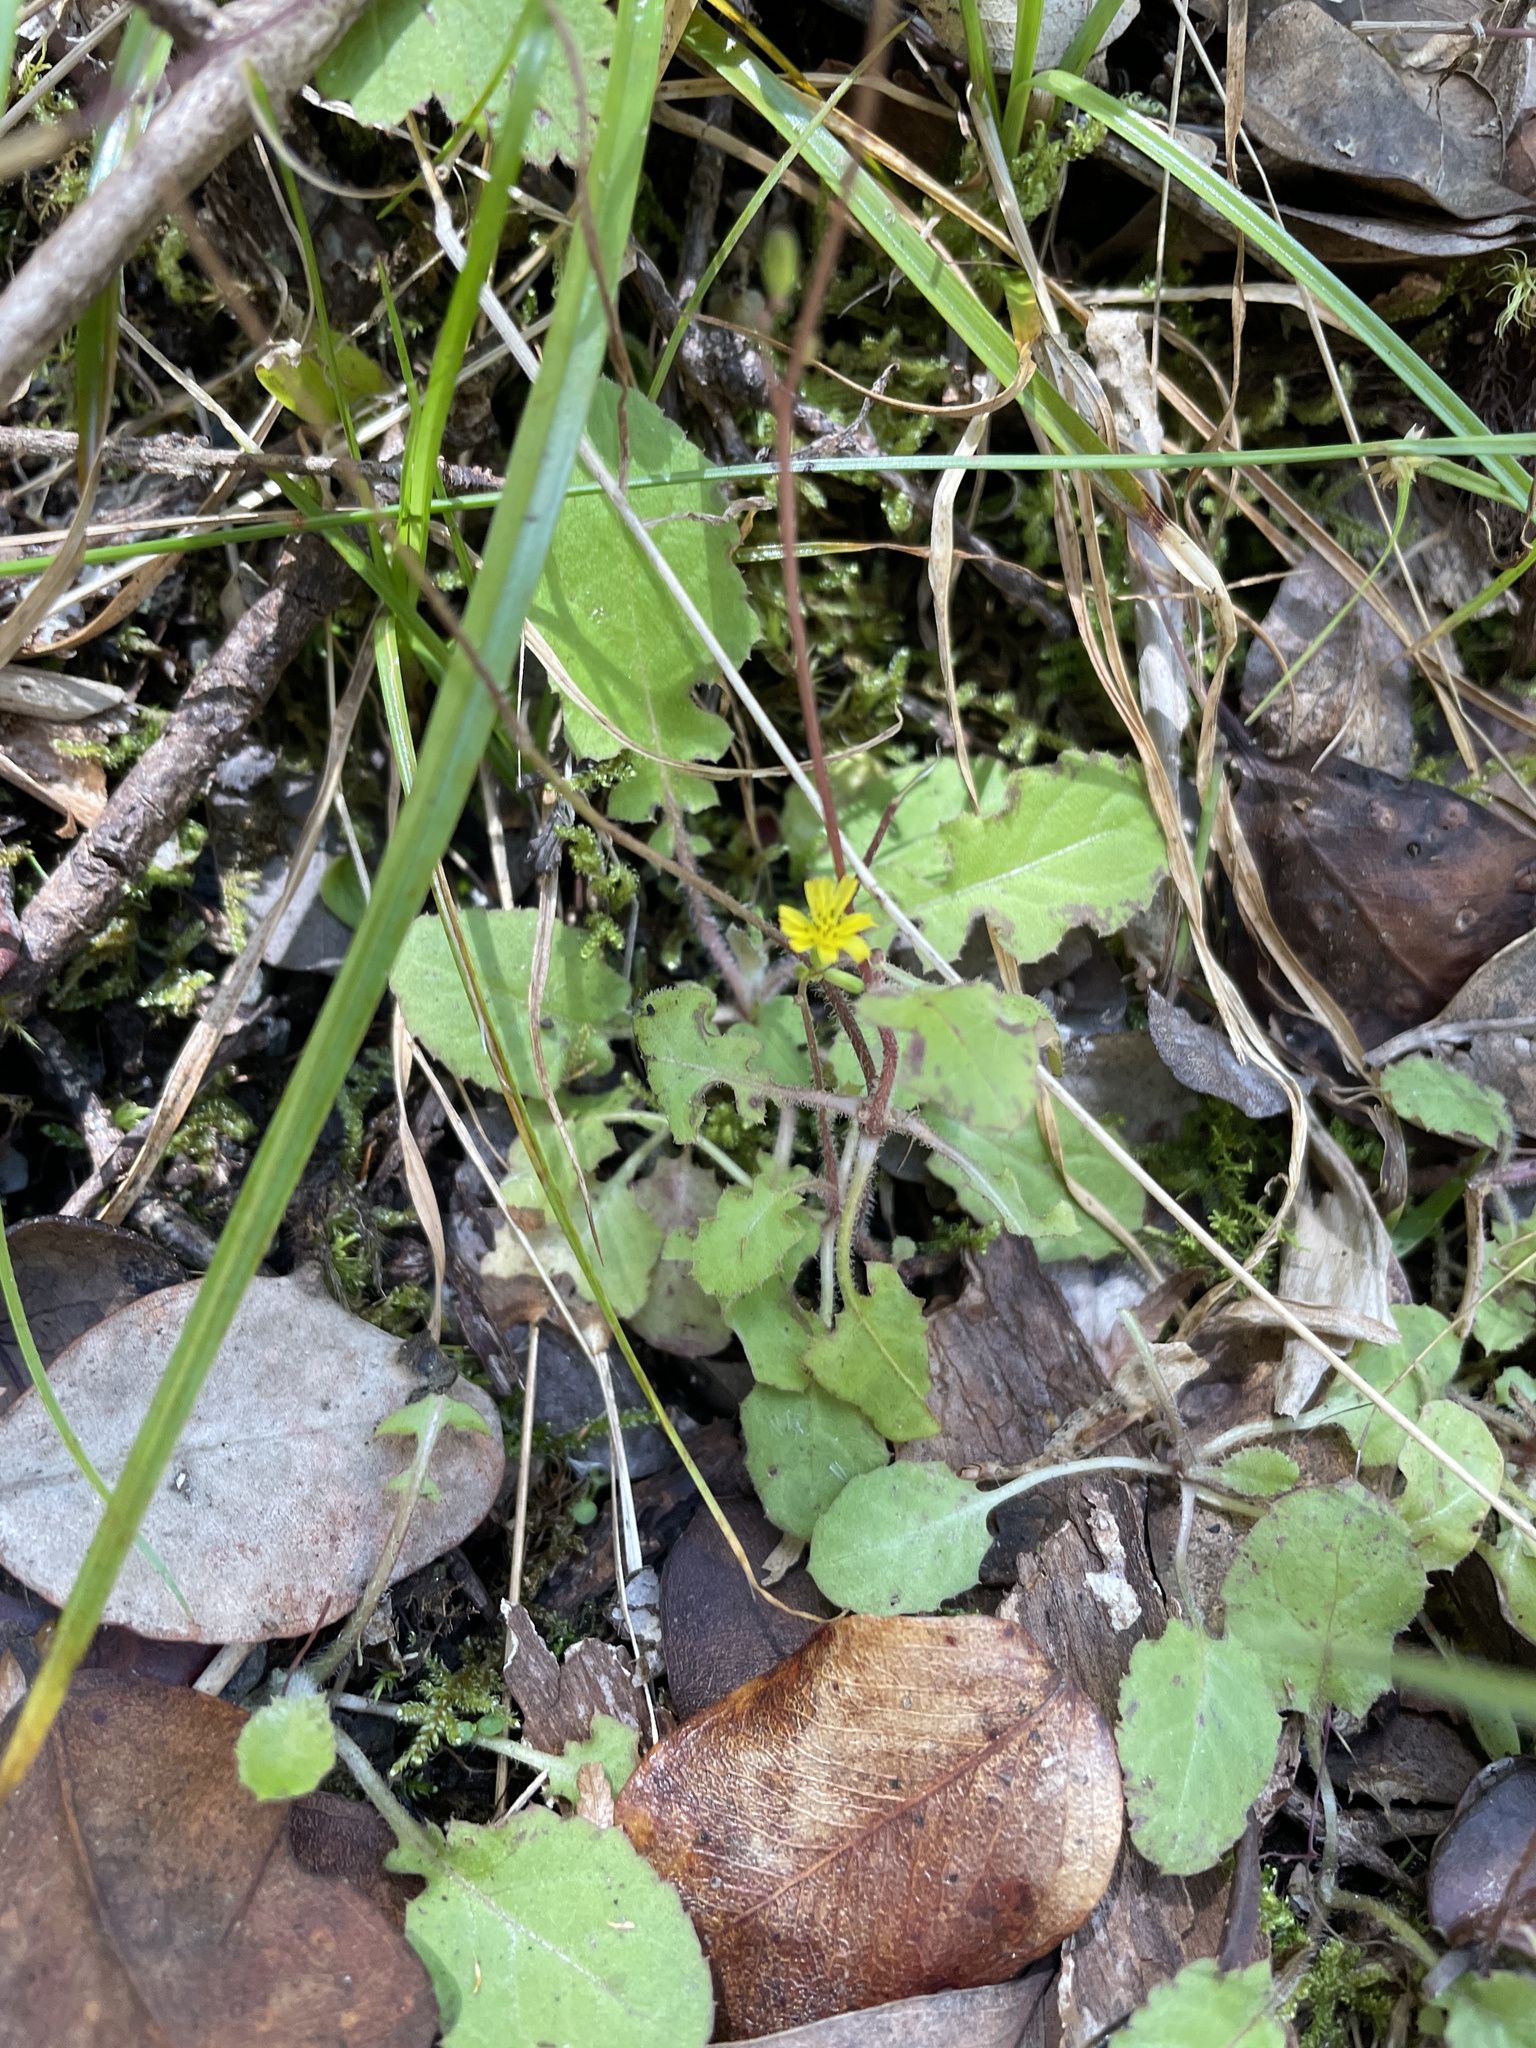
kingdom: Plantae
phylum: Tracheophyta
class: Magnoliopsida
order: Asterales
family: Asteraceae
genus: Youngia
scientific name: Youngia japonica
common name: Oriental false hawksbeard
